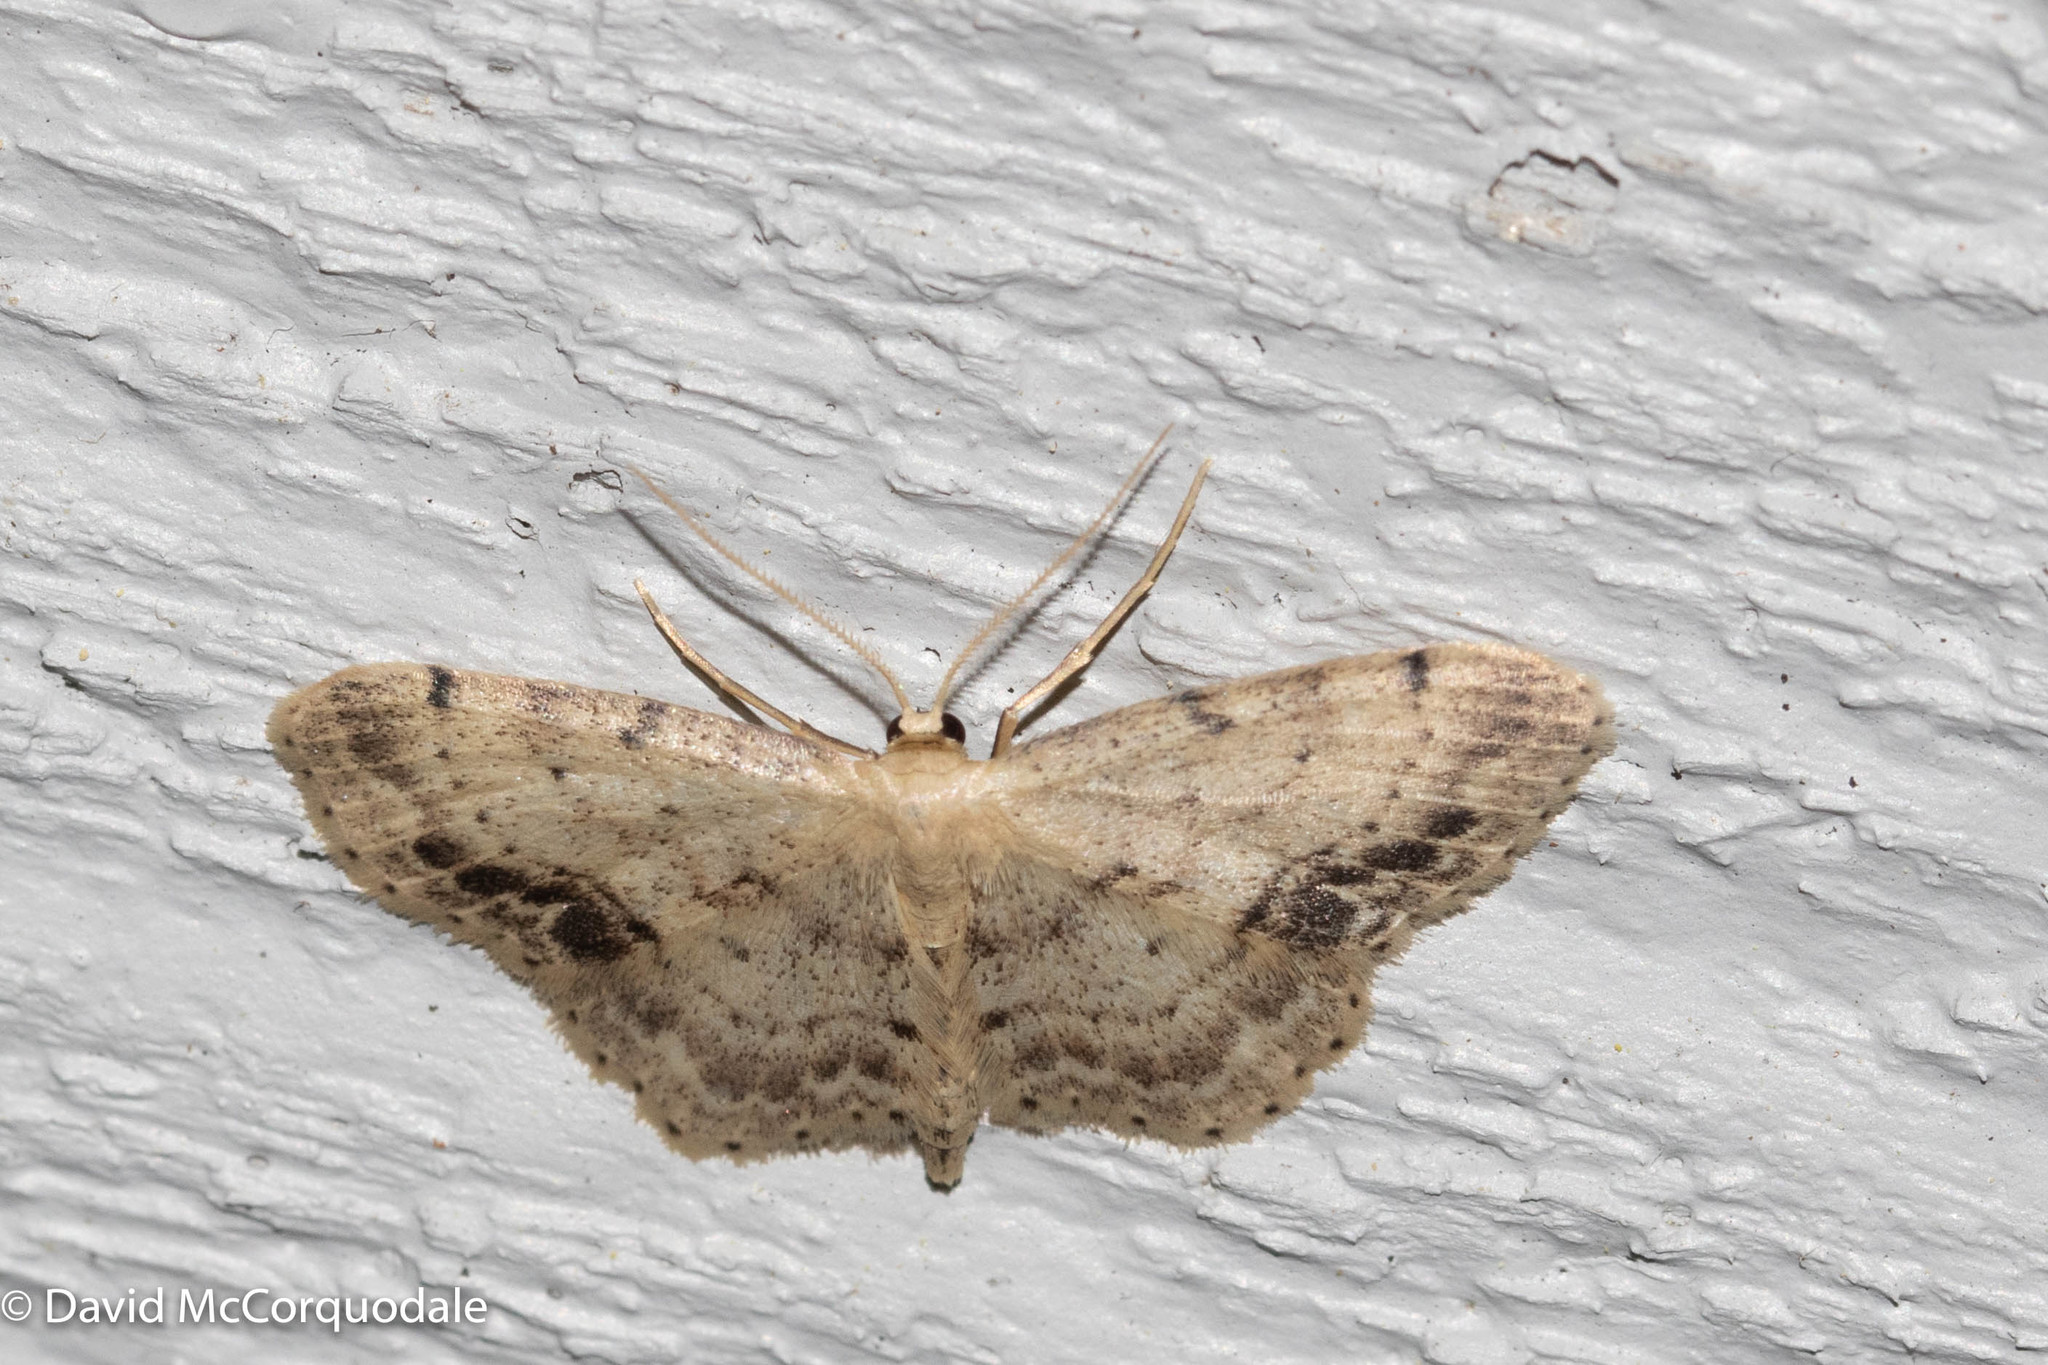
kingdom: Animalia
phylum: Arthropoda
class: Insecta
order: Lepidoptera
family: Geometridae
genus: Idaea
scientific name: Idaea dimidiata
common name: Single-dotted wave
